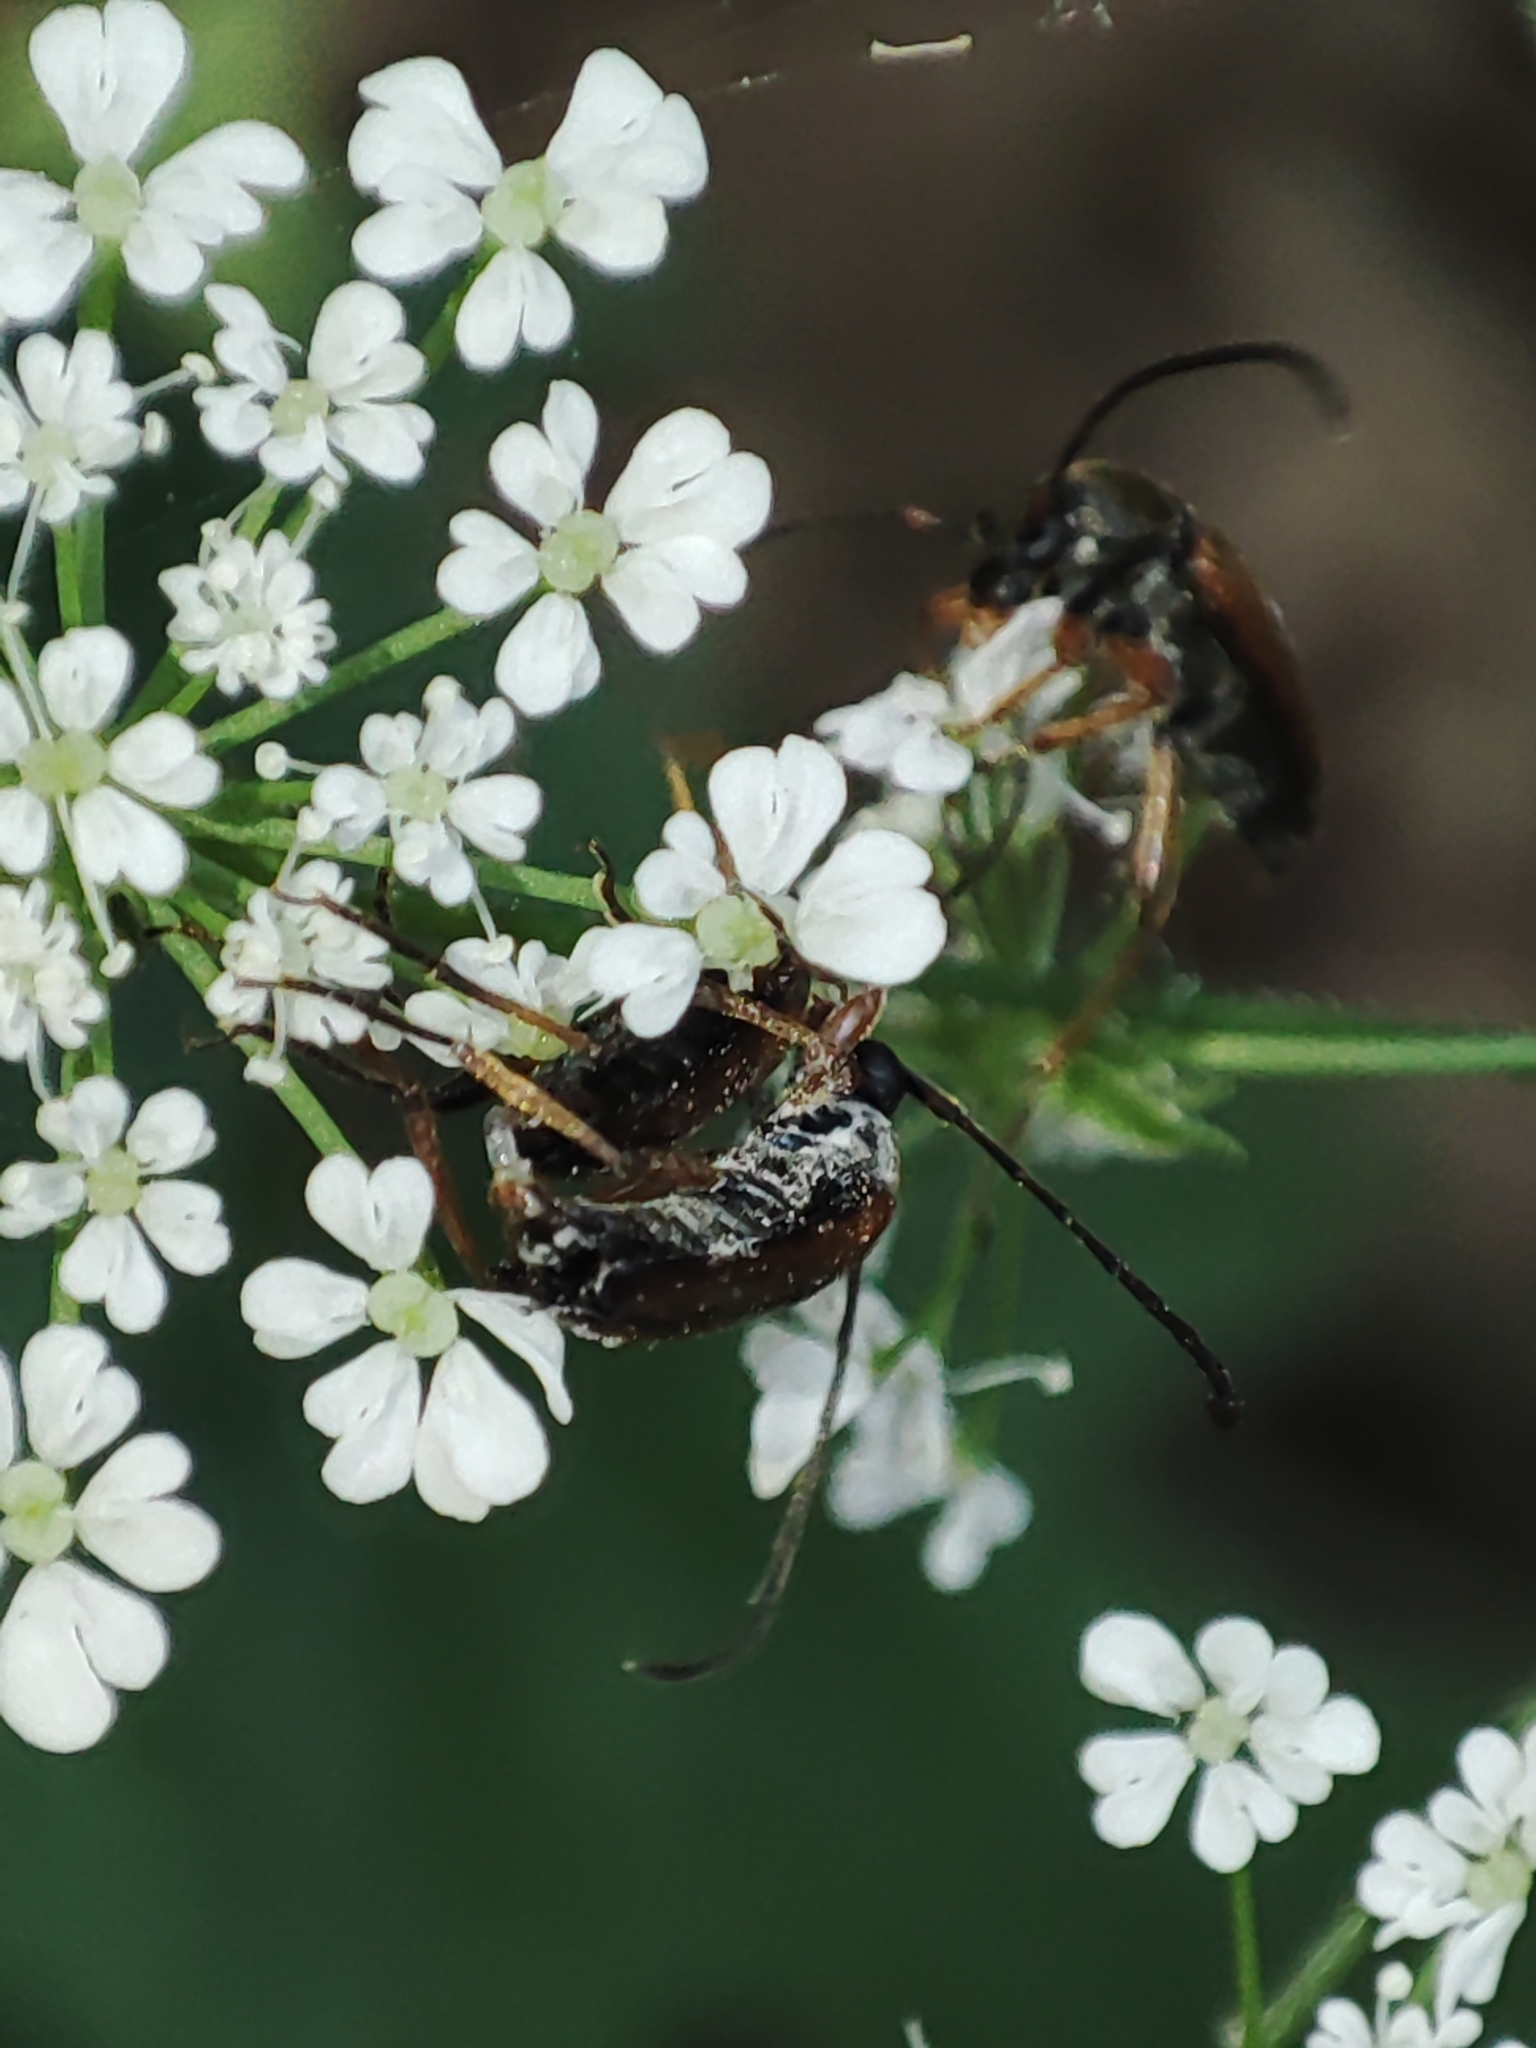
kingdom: Animalia
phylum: Arthropoda
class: Insecta
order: Coleoptera
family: Cerambycidae
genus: Alosterna
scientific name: Alosterna tabacicolor
